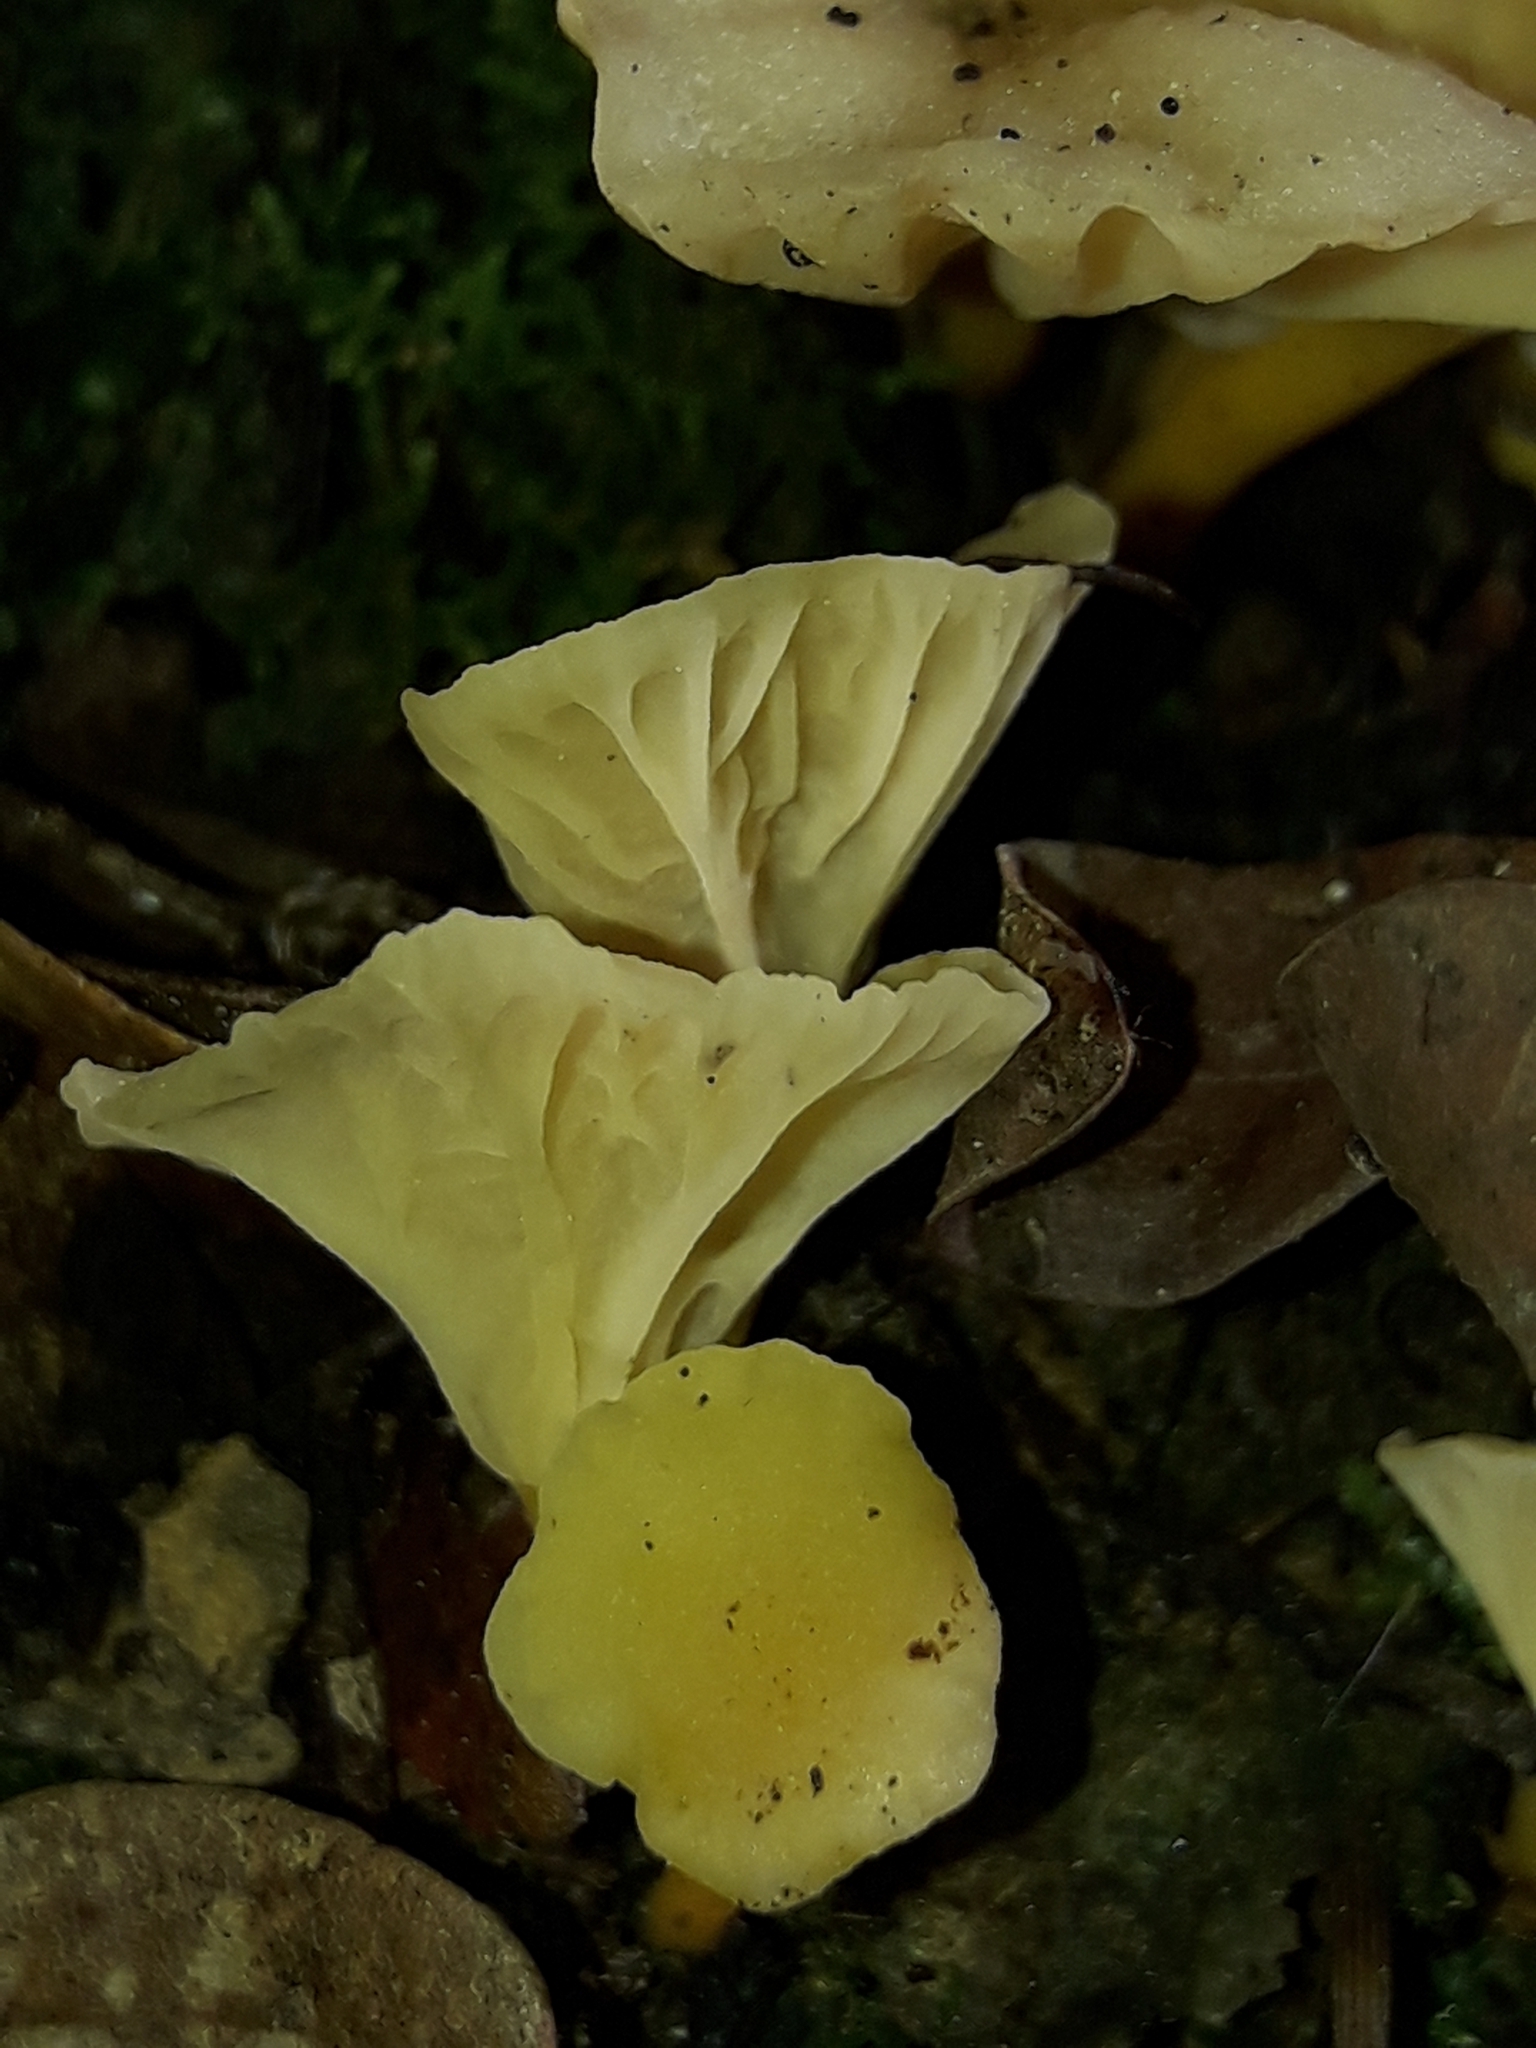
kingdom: Fungi
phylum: Basidiomycota
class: Agaricomycetes
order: Cantharellales
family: Hydnaceae
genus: Cantharellus
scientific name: Cantharellus wellingtonensis
